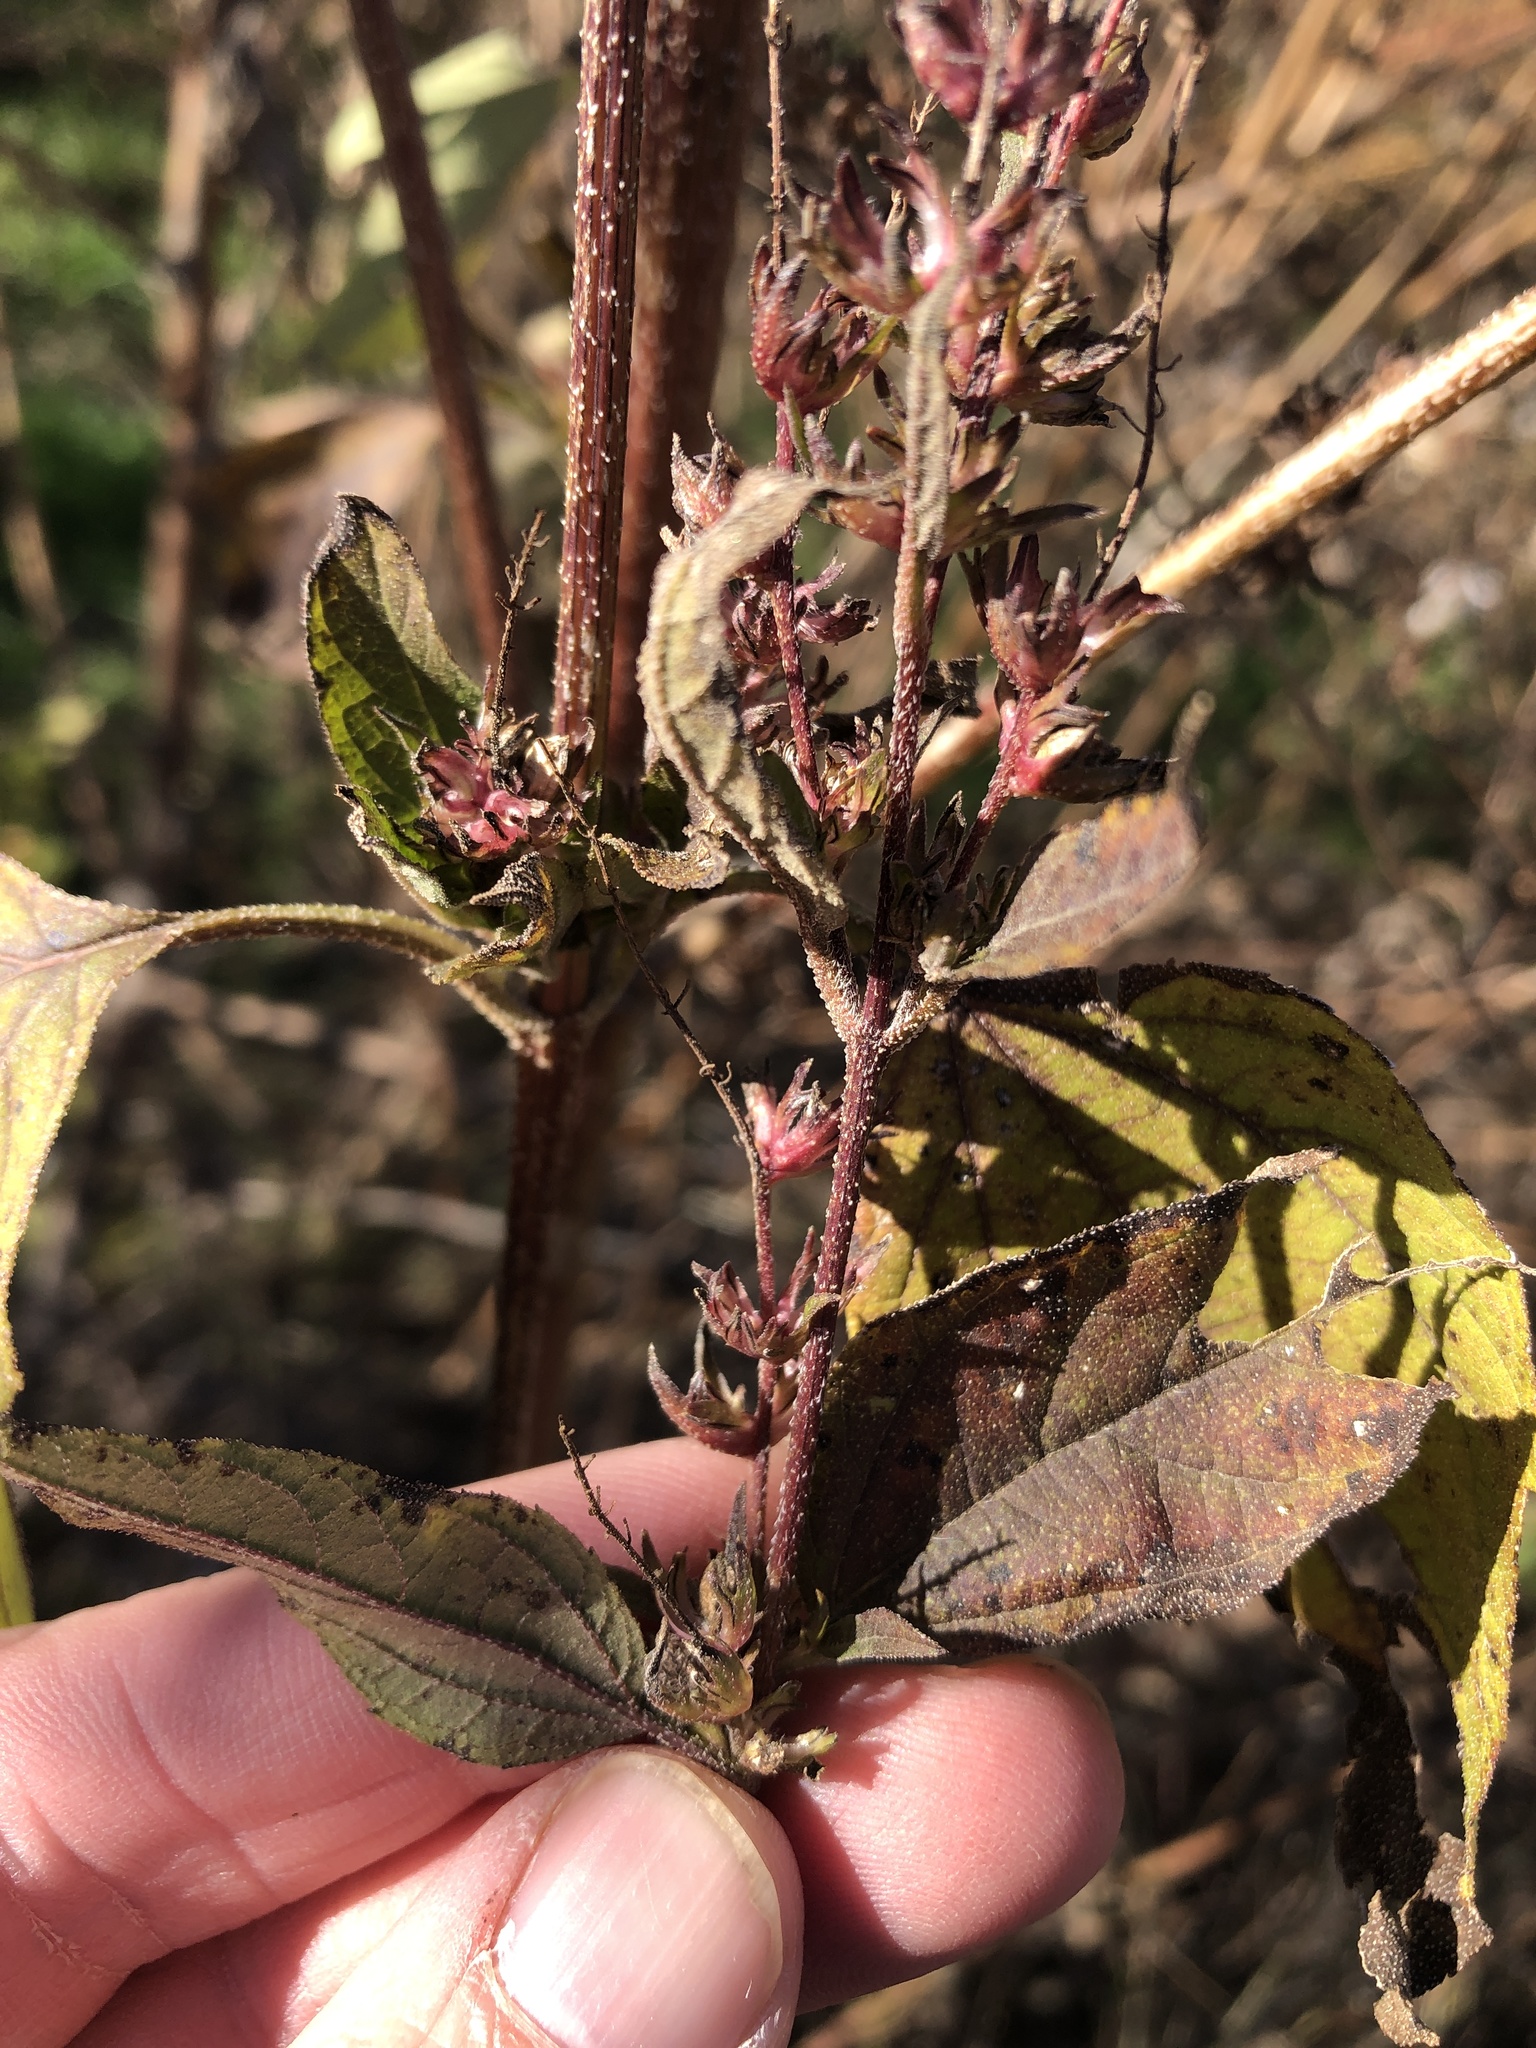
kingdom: Plantae
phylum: Tracheophyta
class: Magnoliopsida
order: Asterales
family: Asteraceae
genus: Ambrosia
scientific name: Ambrosia trifida
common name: Giant ragweed
